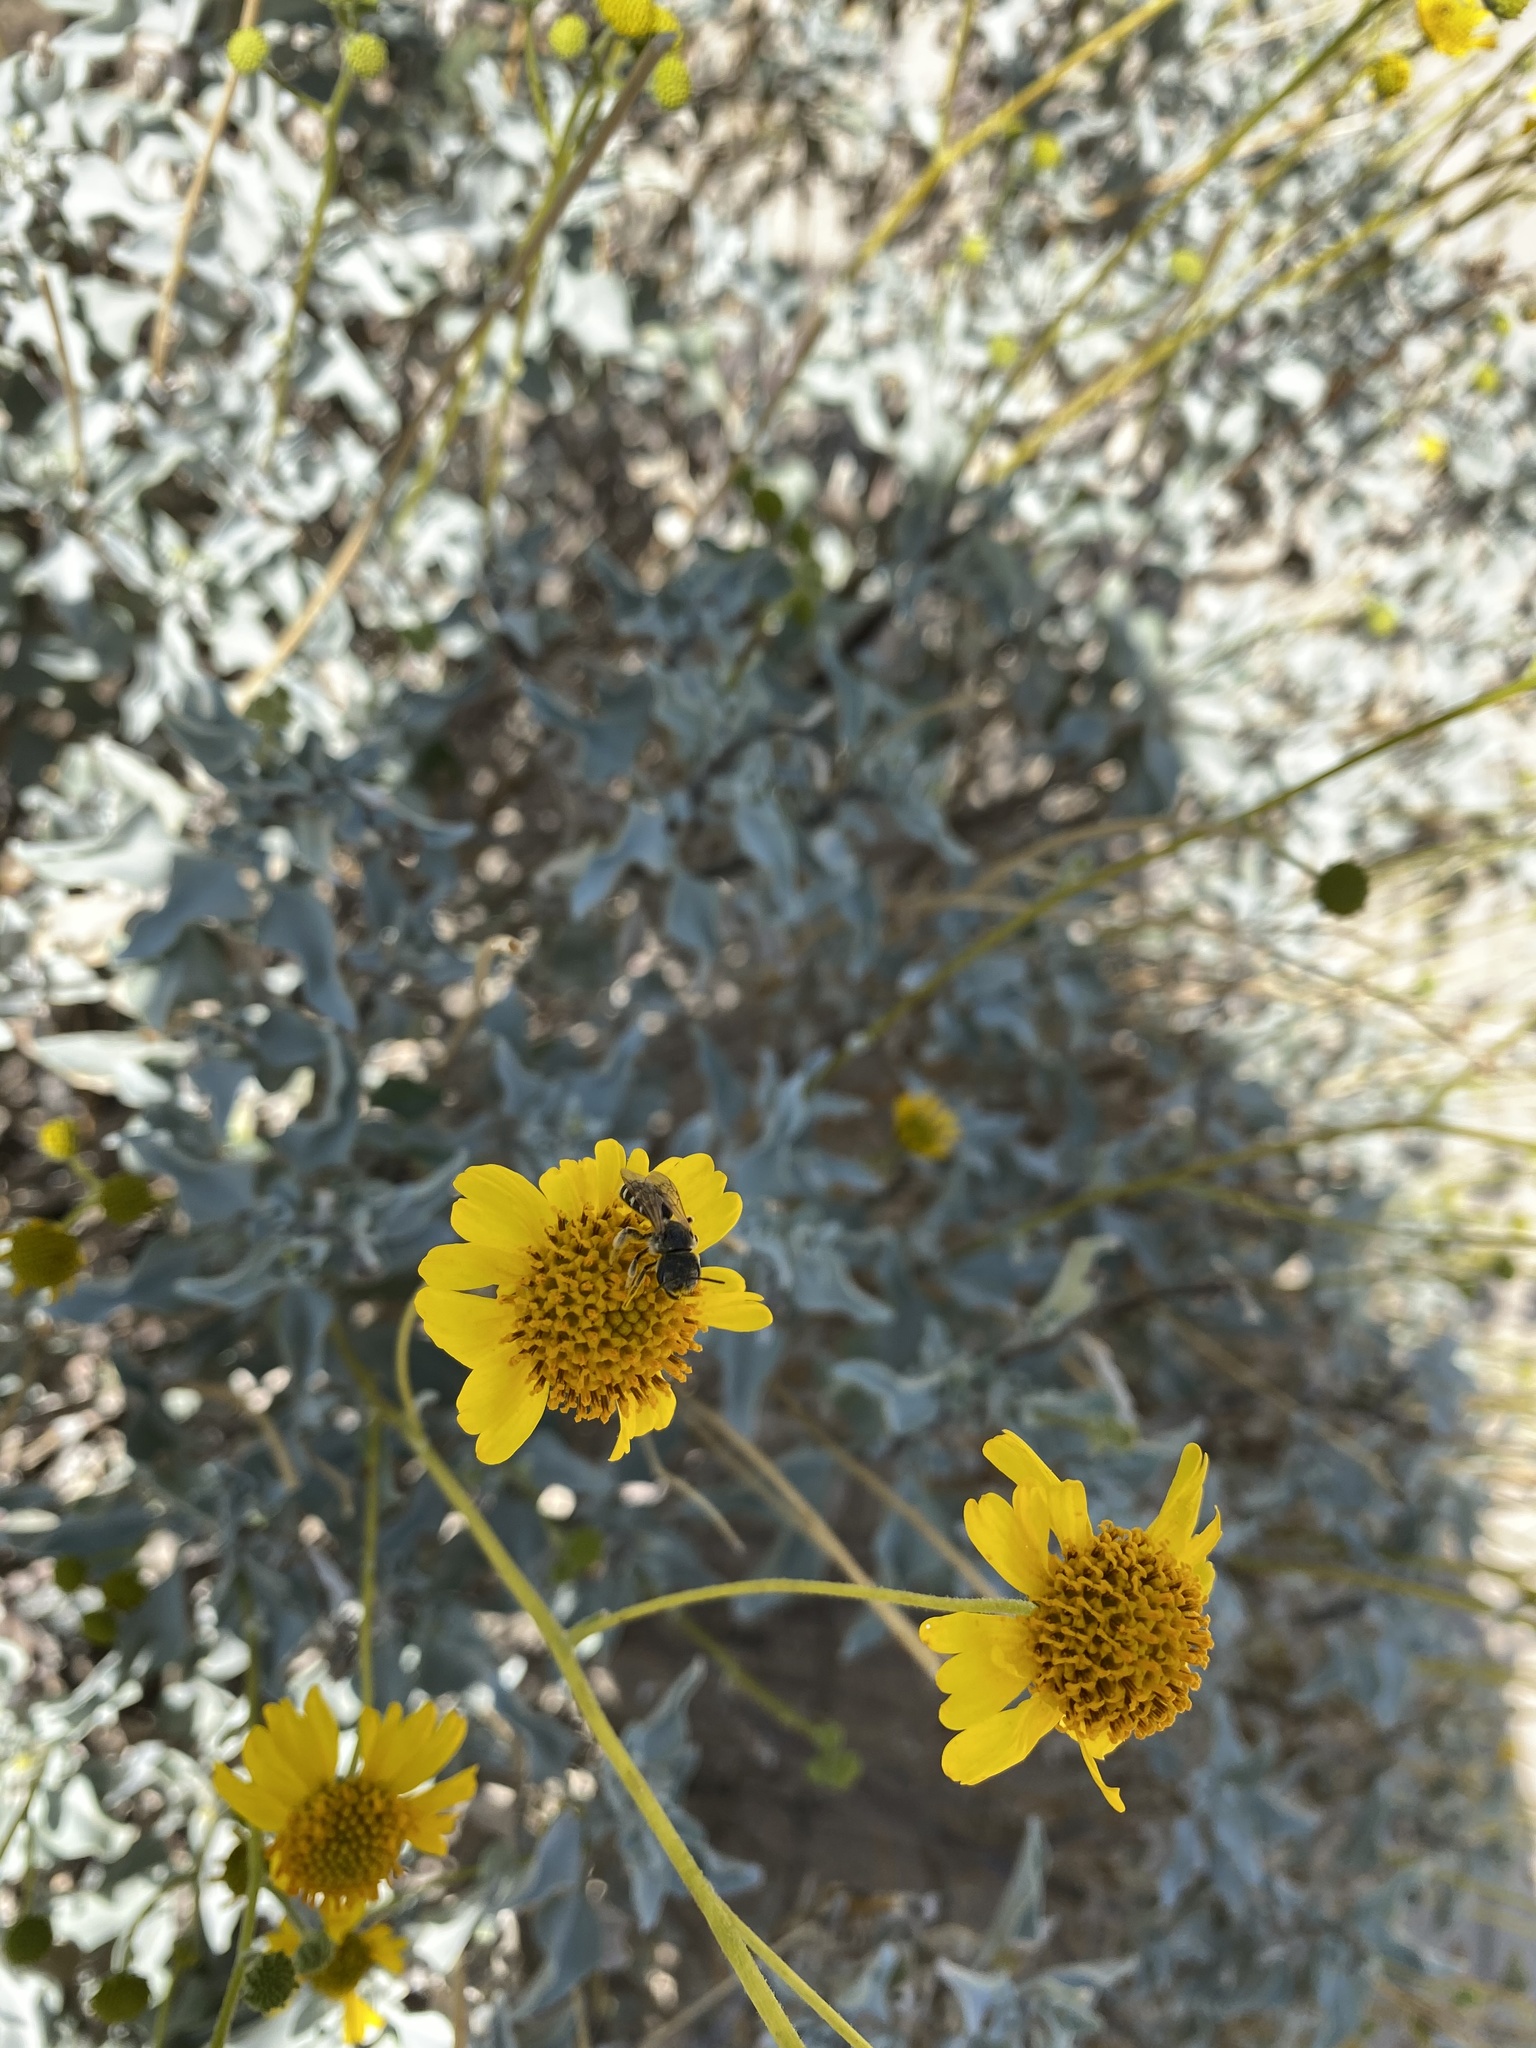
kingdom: Animalia
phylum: Arthropoda
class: Insecta
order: Hymenoptera
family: Halictidae
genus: Halictus
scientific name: Halictus ligatus
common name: Ligated furrow bee
